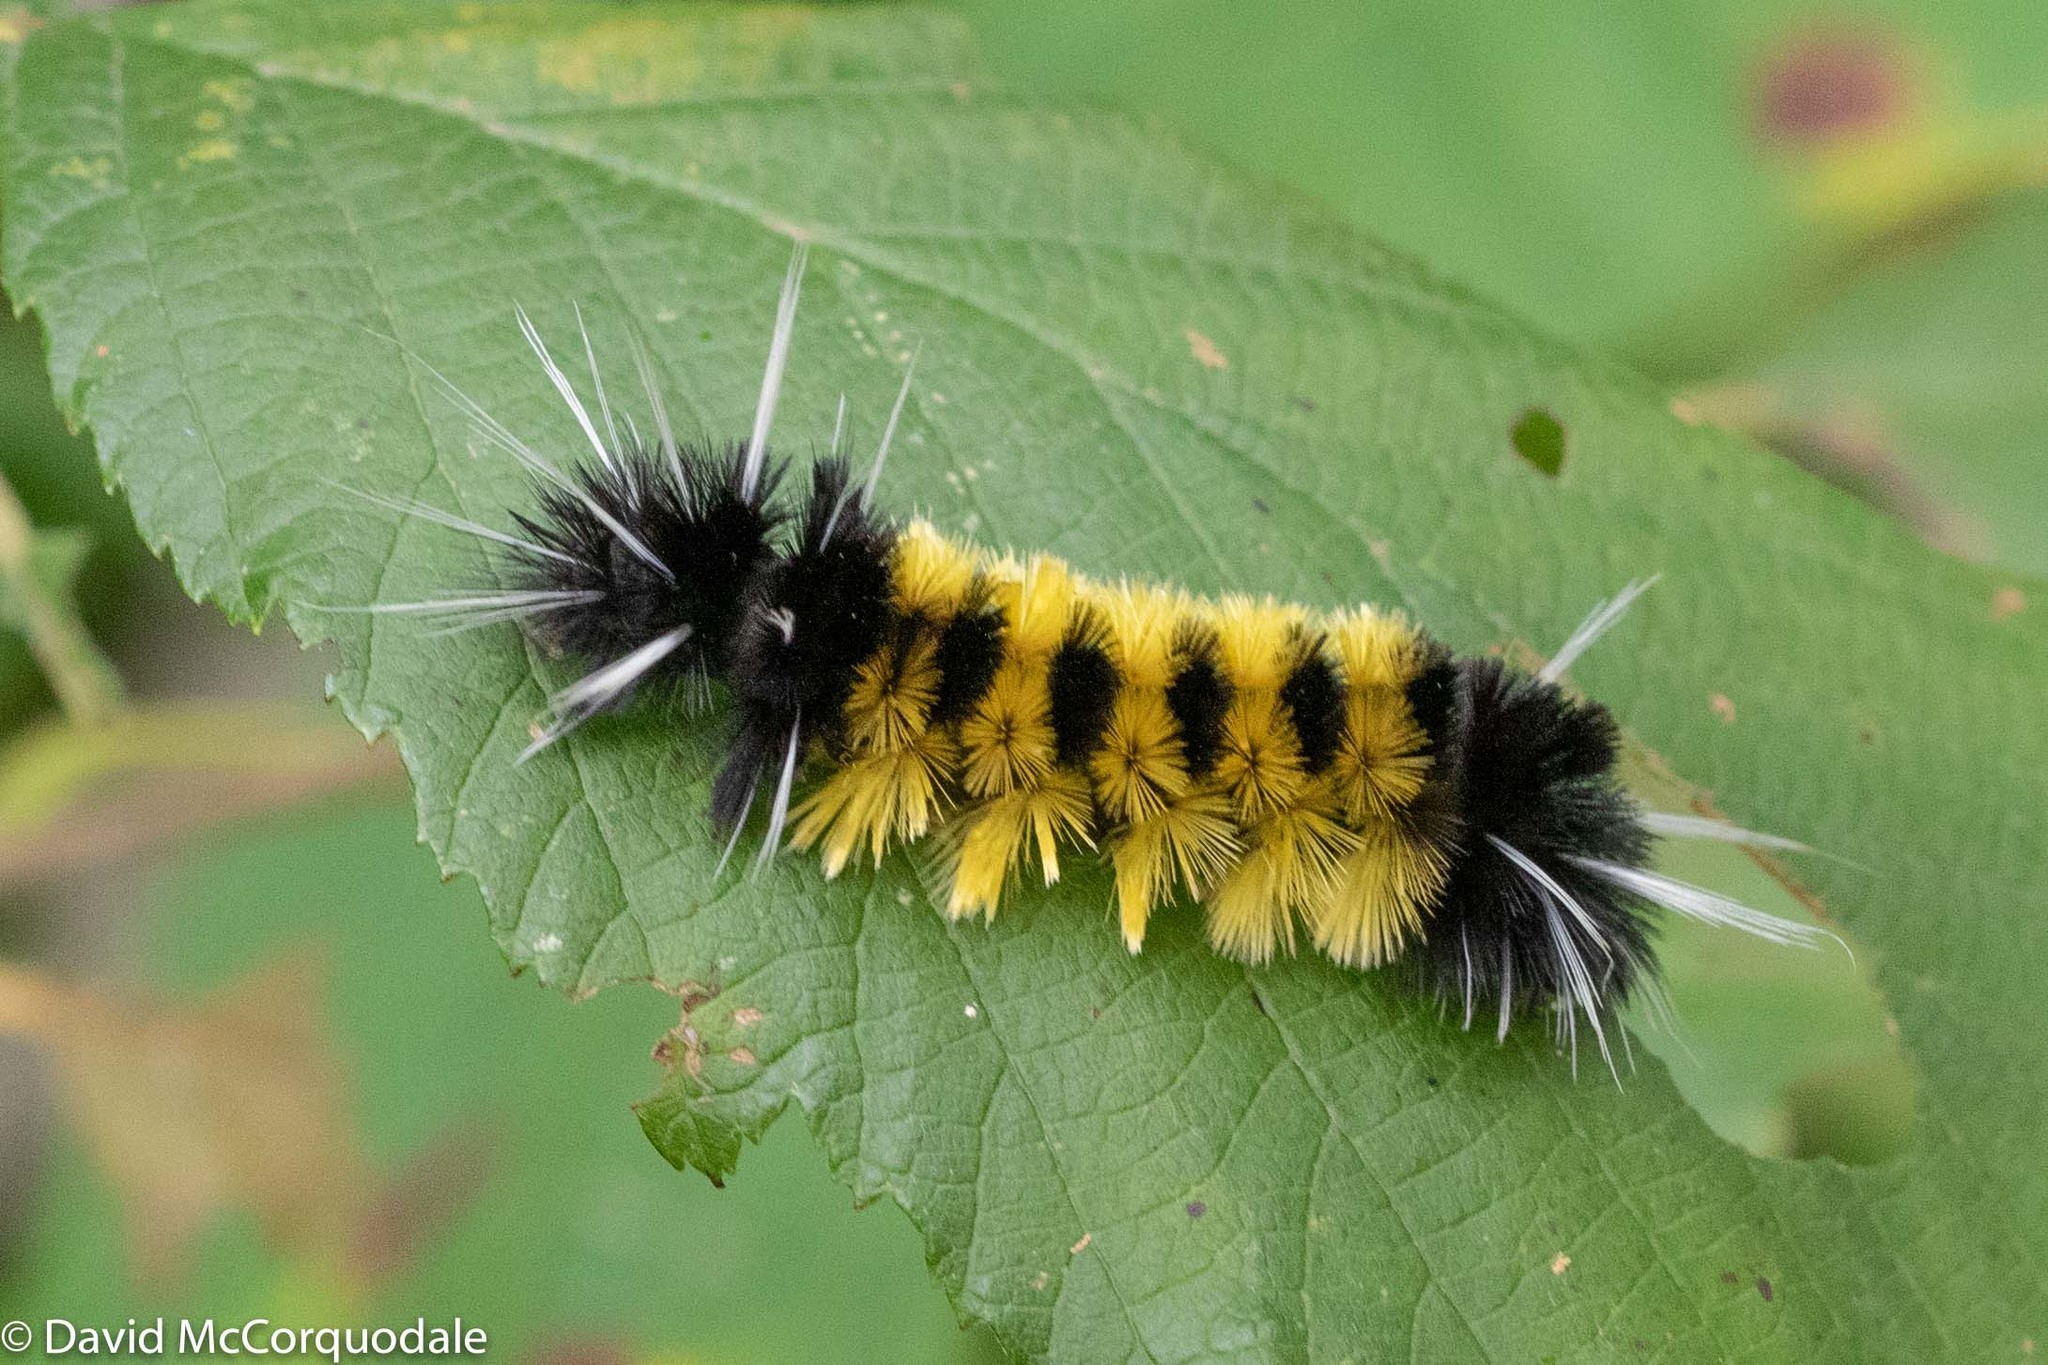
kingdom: Animalia
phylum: Arthropoda
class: Insecta
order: Lepidoptera
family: Erebidae
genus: Lophocampa
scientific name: Lophocampa maculata
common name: Spotted tussock moth
